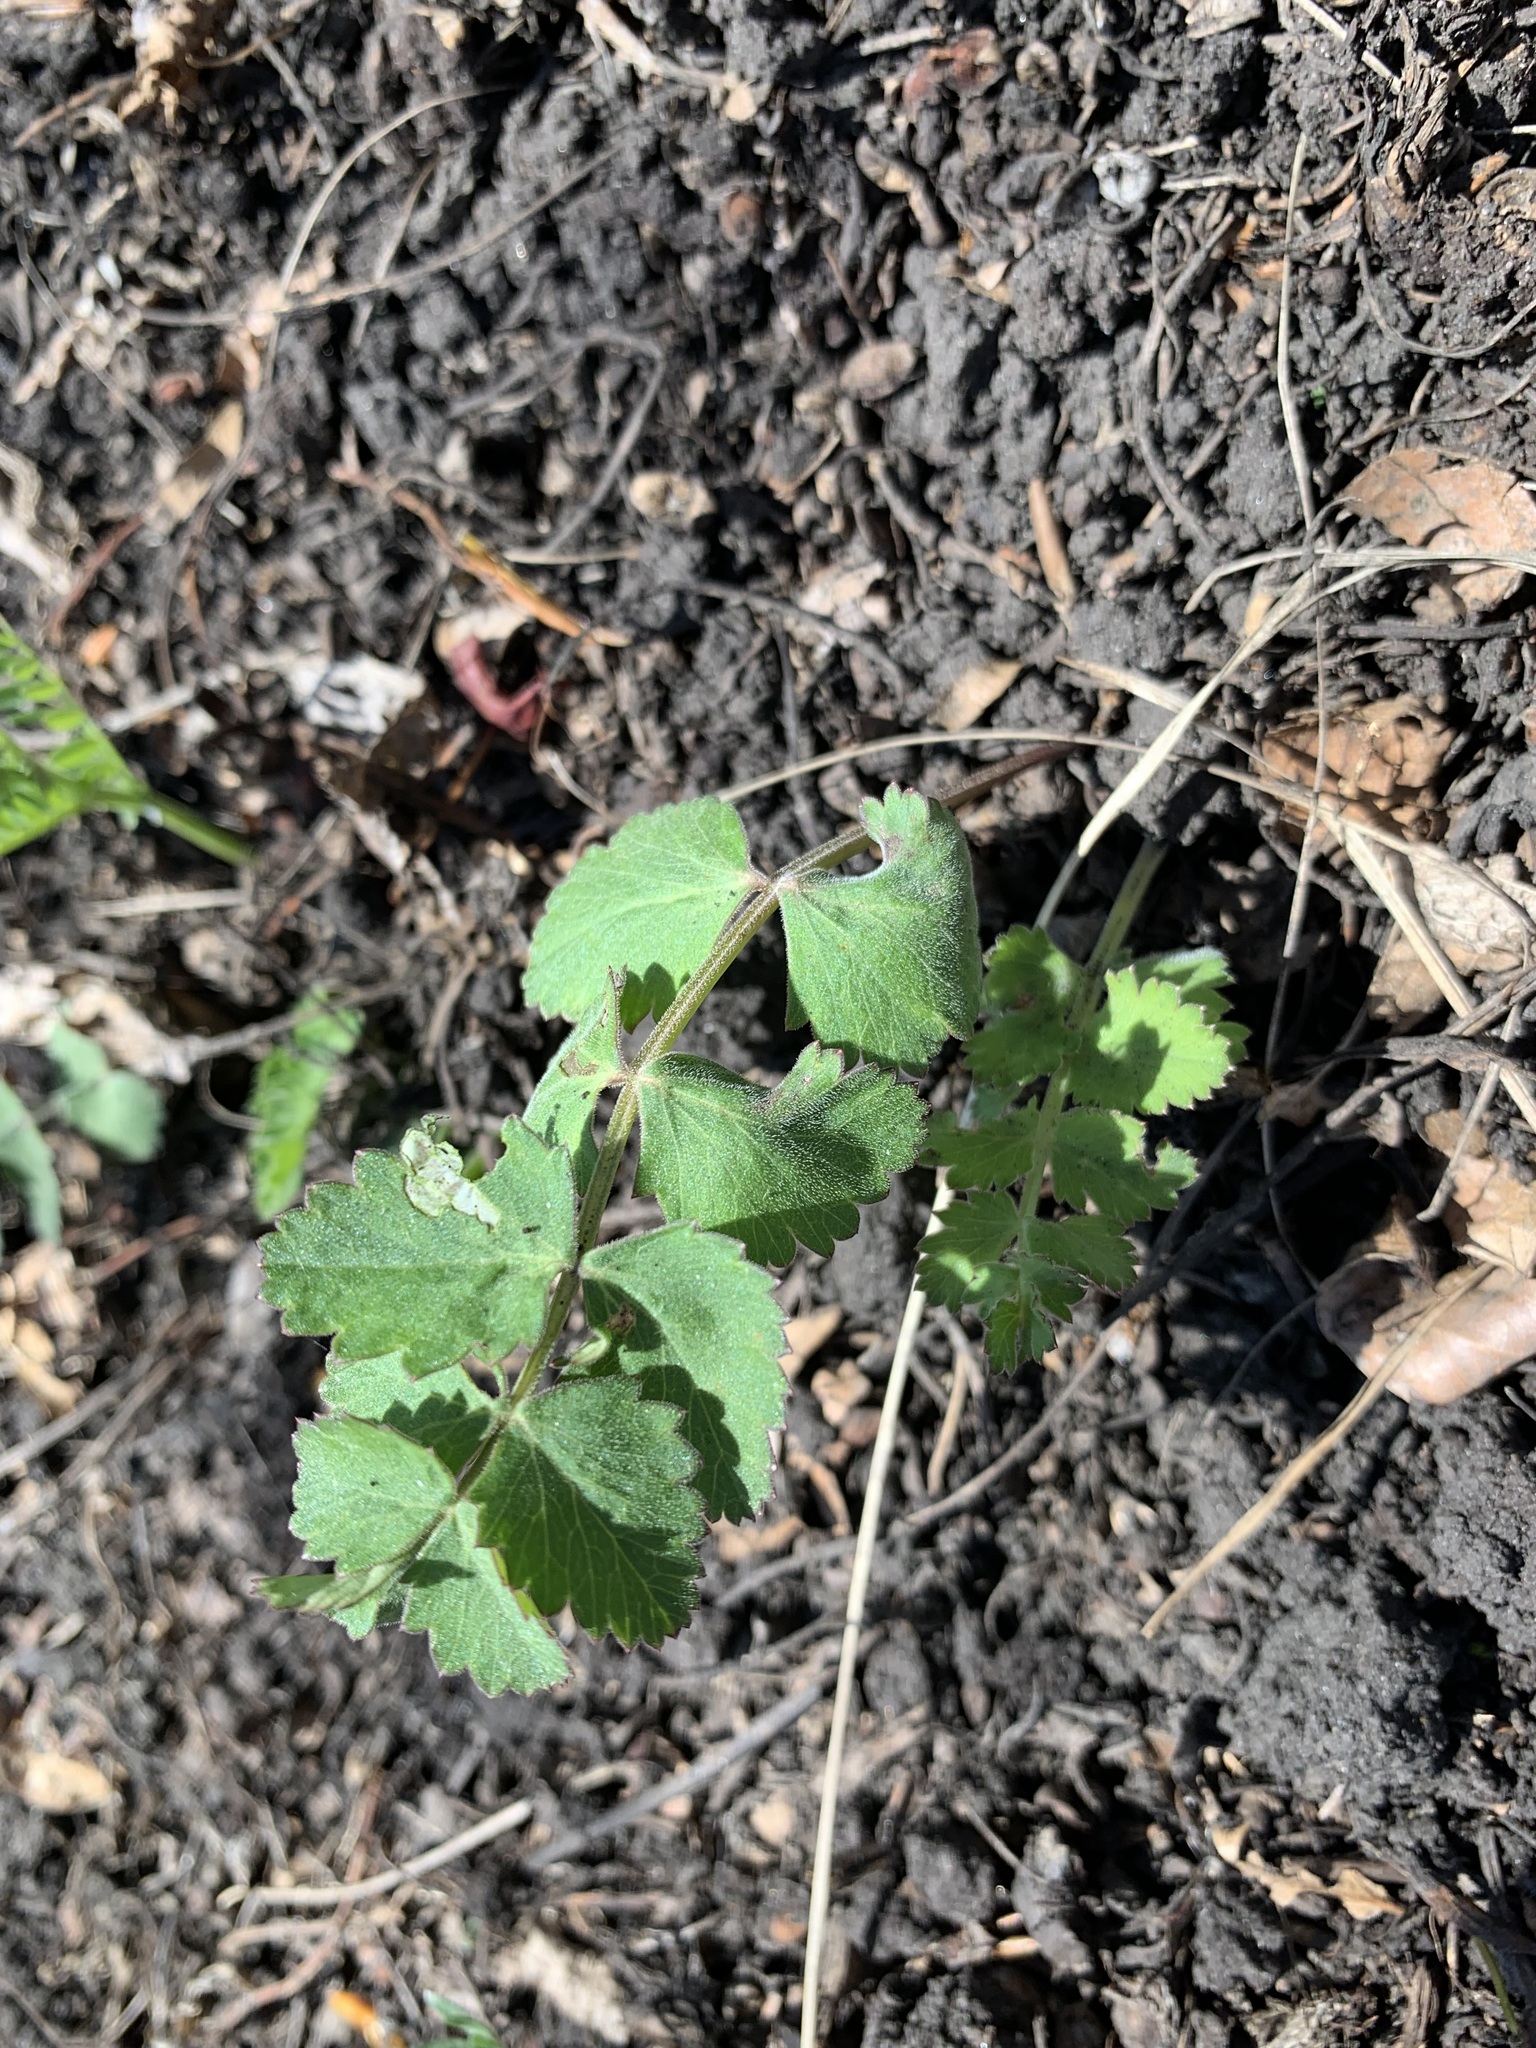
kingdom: Plantae
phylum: Tracheophyta
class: Magnoliopsida
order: Apiales
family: Apiaceae
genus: Pimpinella
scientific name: Pimpinella saxifraga
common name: Burnet-saxifrage
